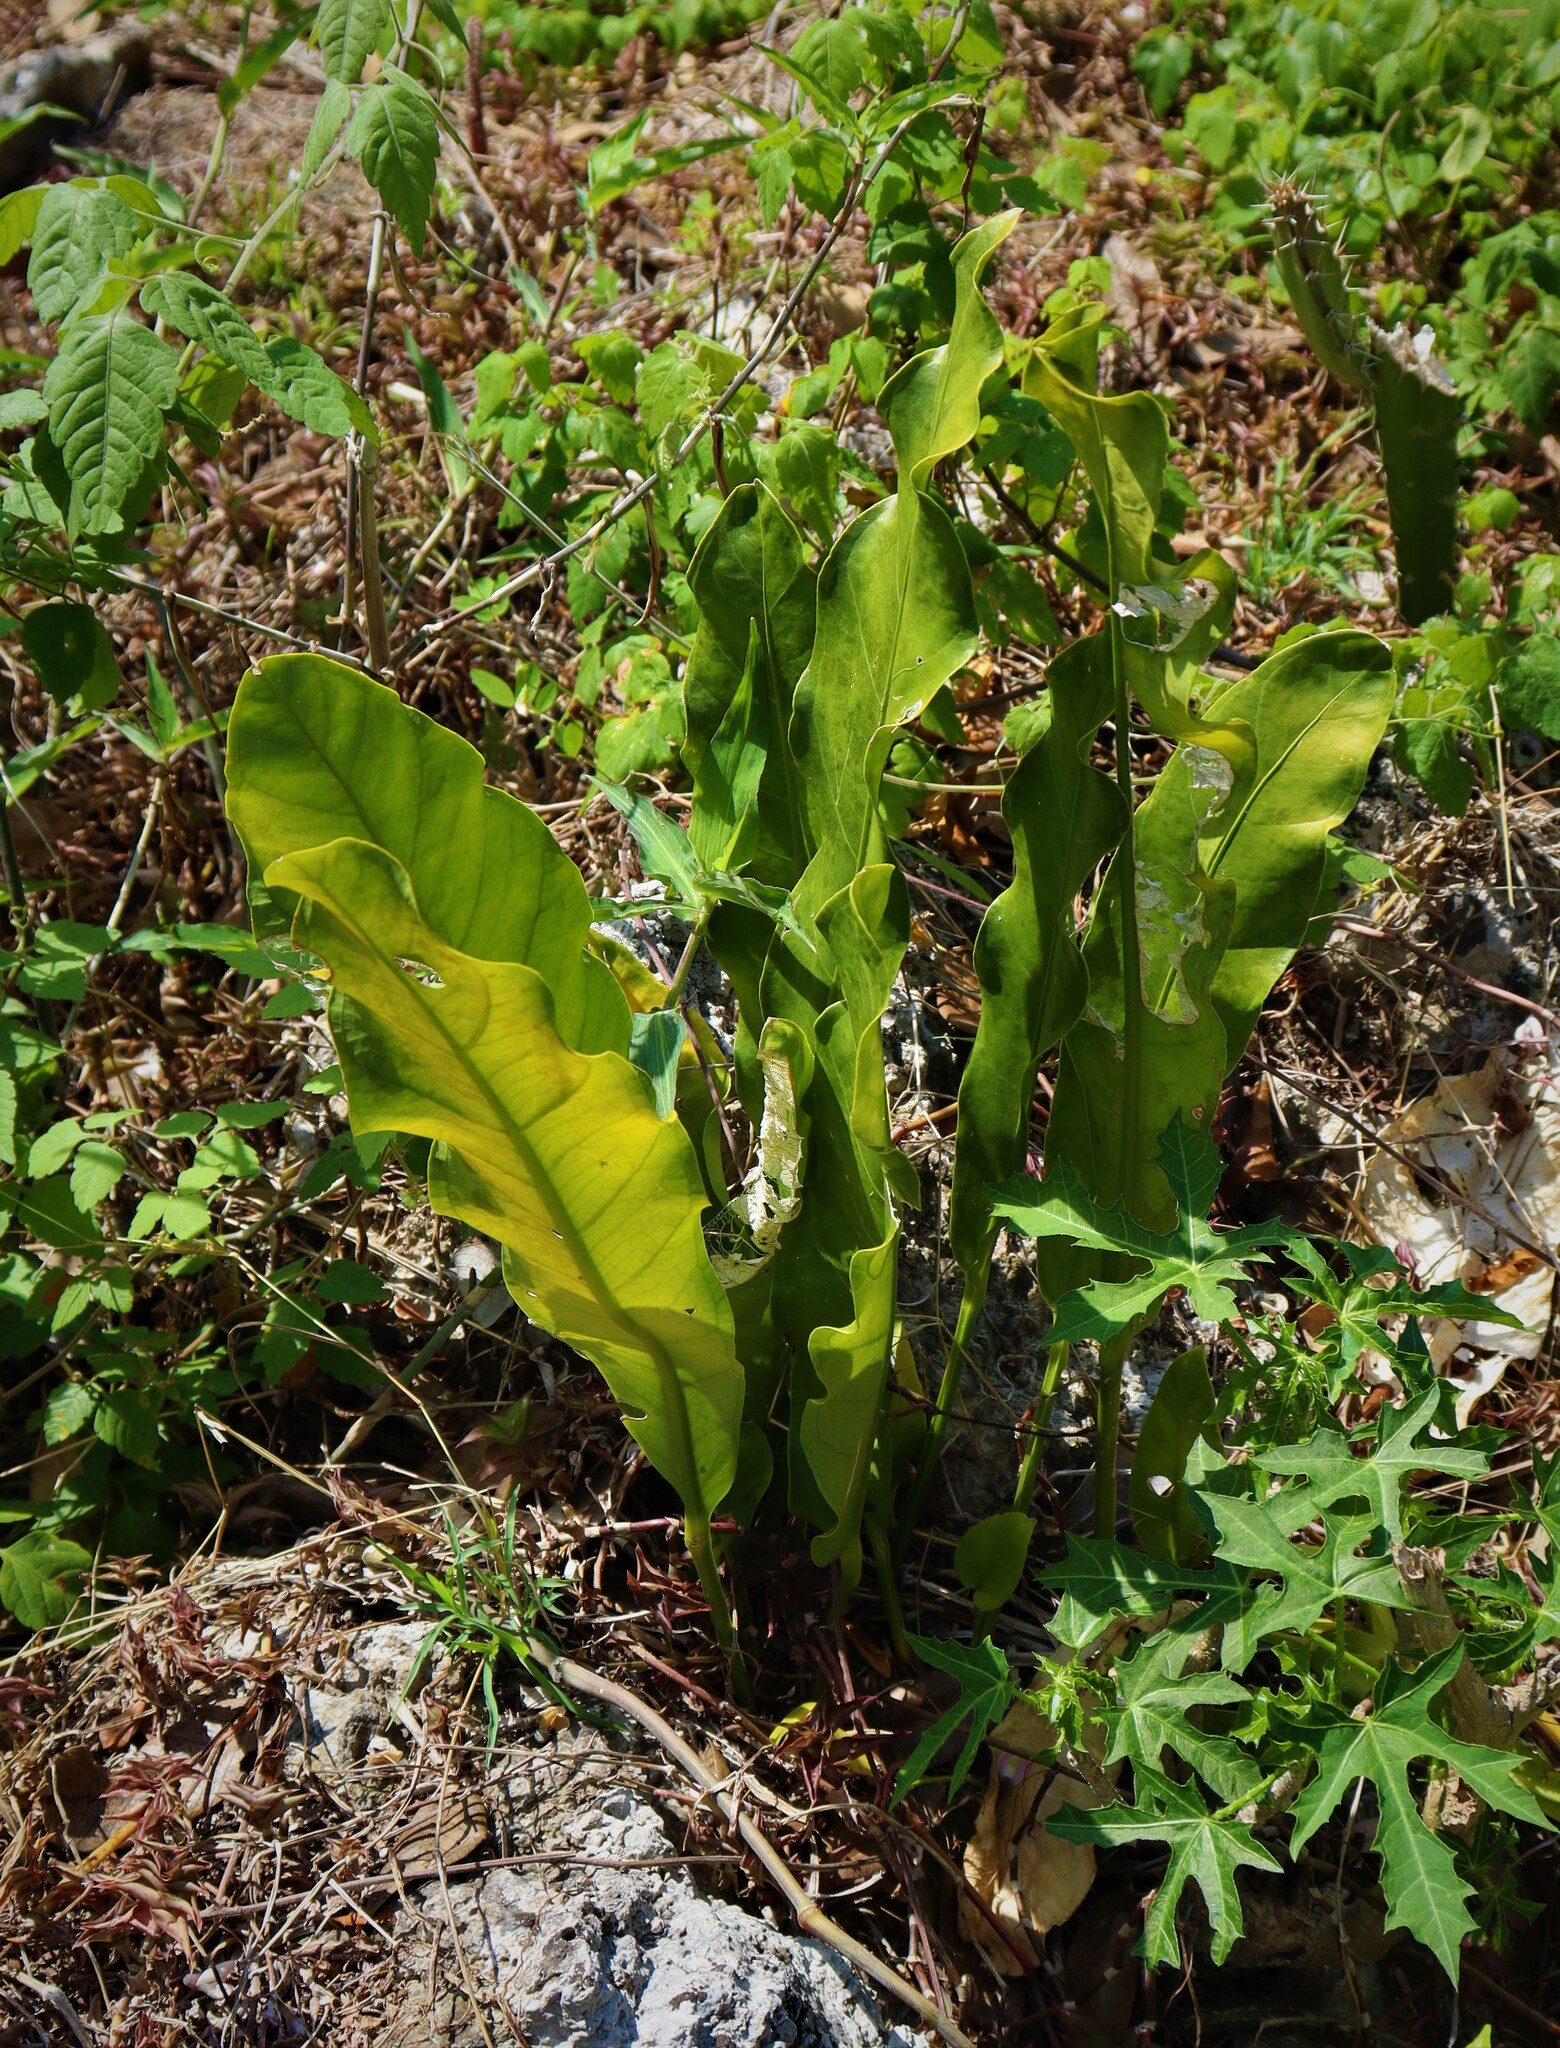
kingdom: Plantae
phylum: Tracheophyta
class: Liliopsida
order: Alismatales
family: Araceae
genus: Anthurium
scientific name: Anthurium schlechtendalii
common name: Laceleaf
